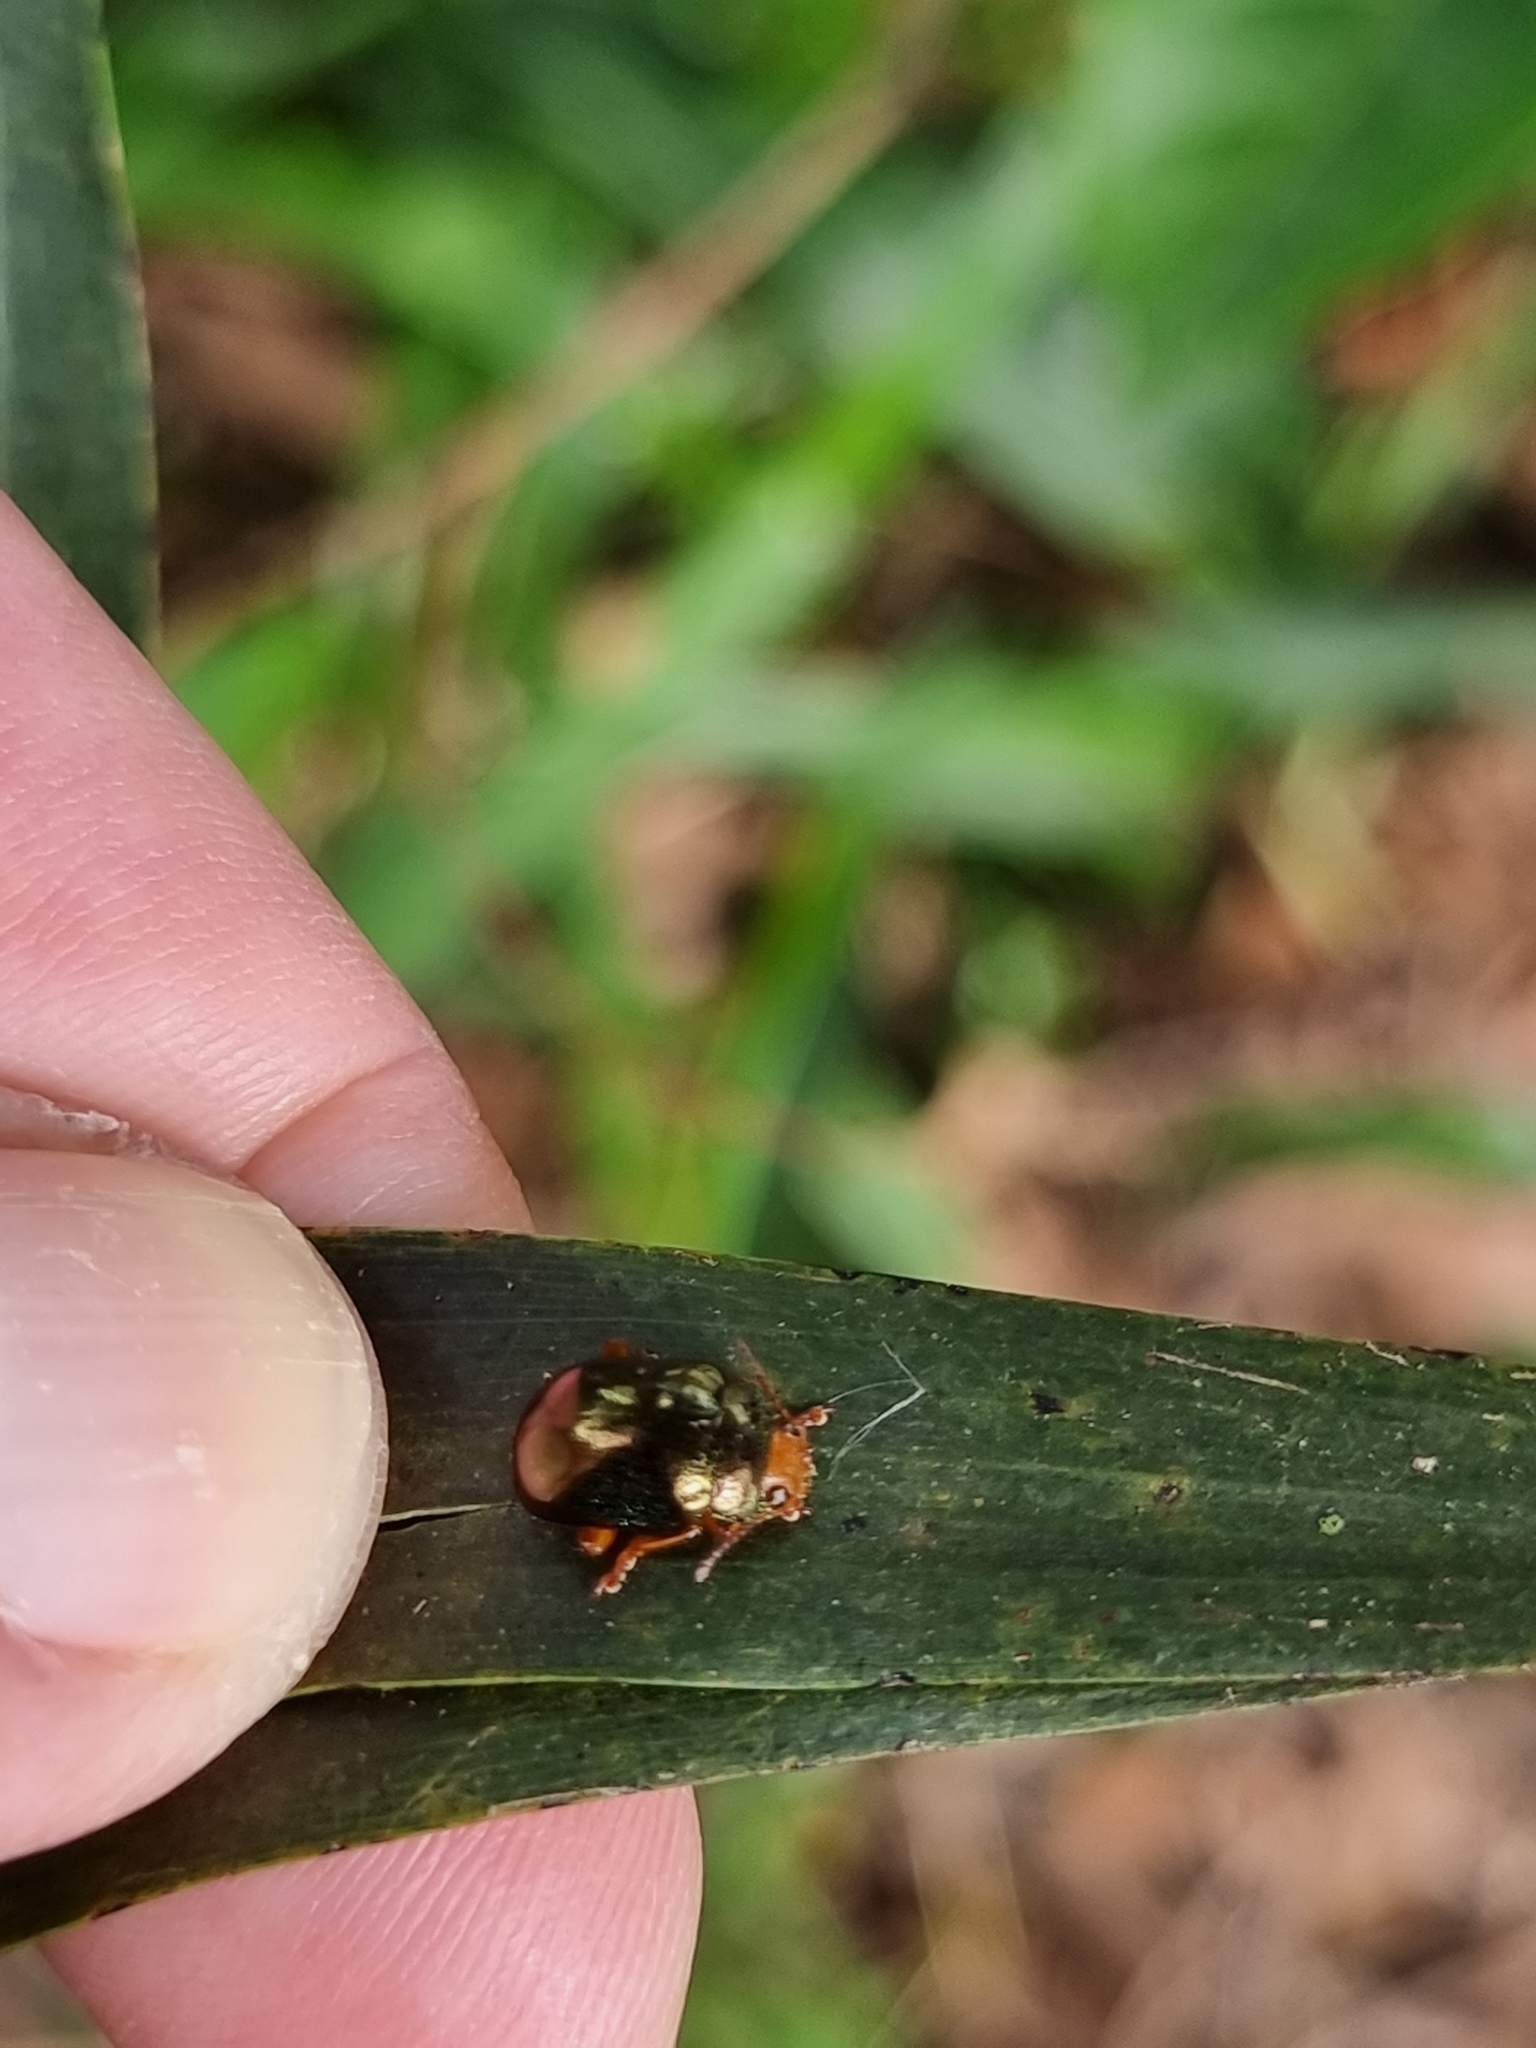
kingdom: Animalia
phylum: Arthropoda
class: Insecta
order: Coleoptera
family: Chrysomelidae
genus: Calomela
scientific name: Calomela
